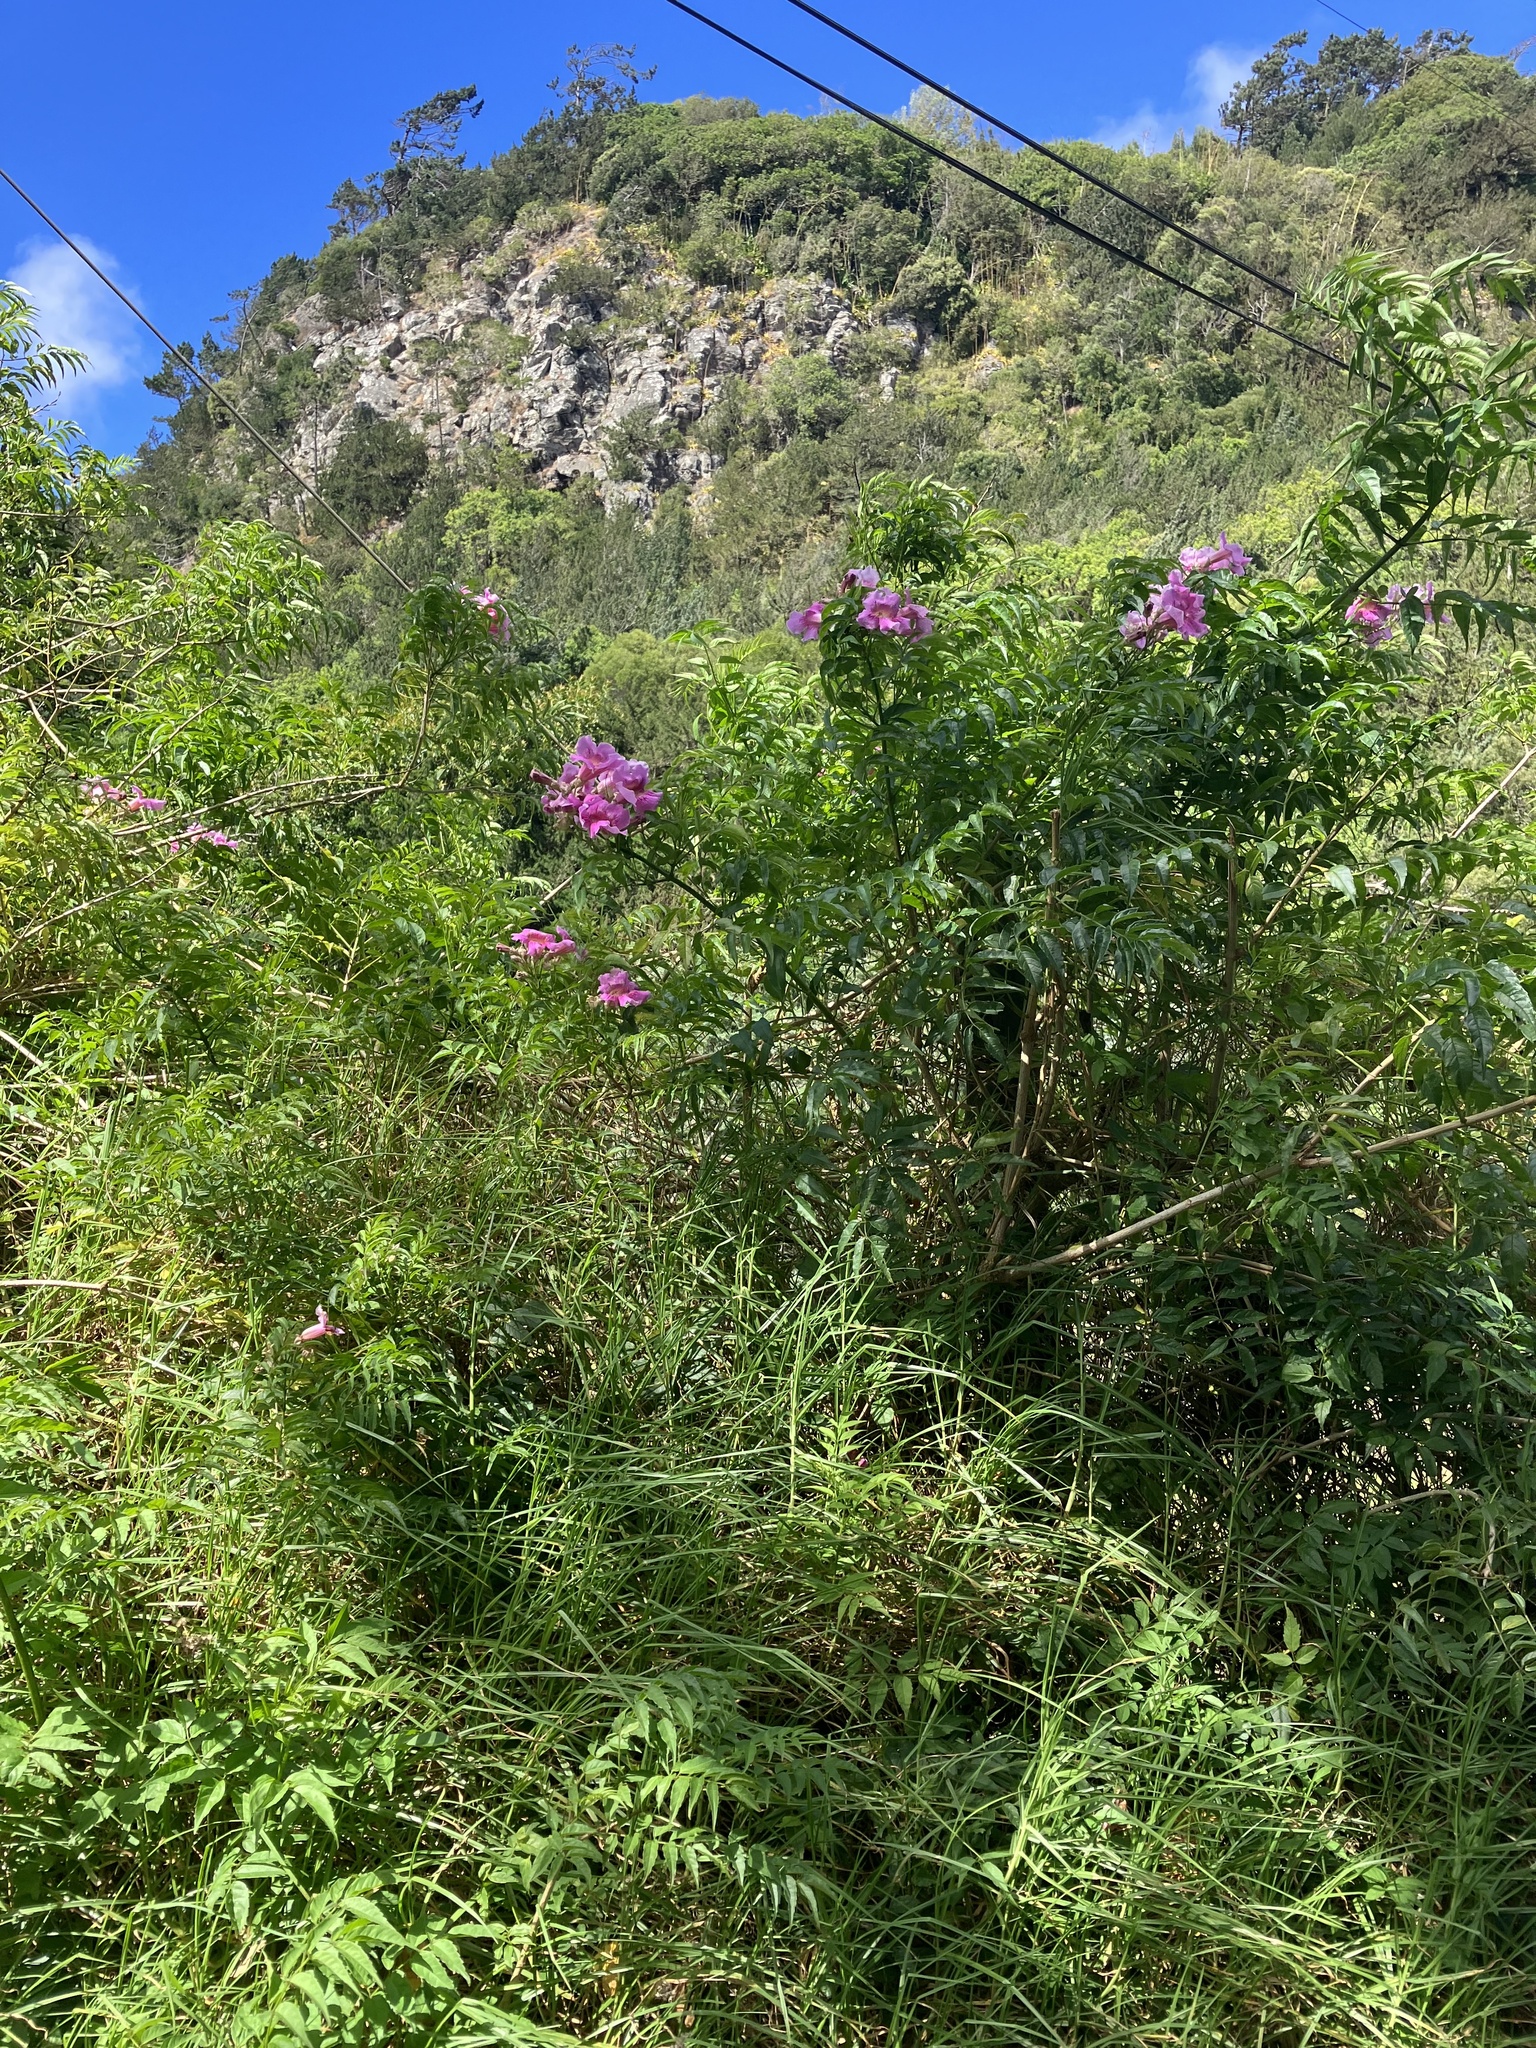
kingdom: Plantae
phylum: Tracheophyta
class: Magnoliopsida
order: Lamiales
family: Bignoniaceae
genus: Podranea
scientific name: Podranea ricasoliana
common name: Zimbabwe creeper
